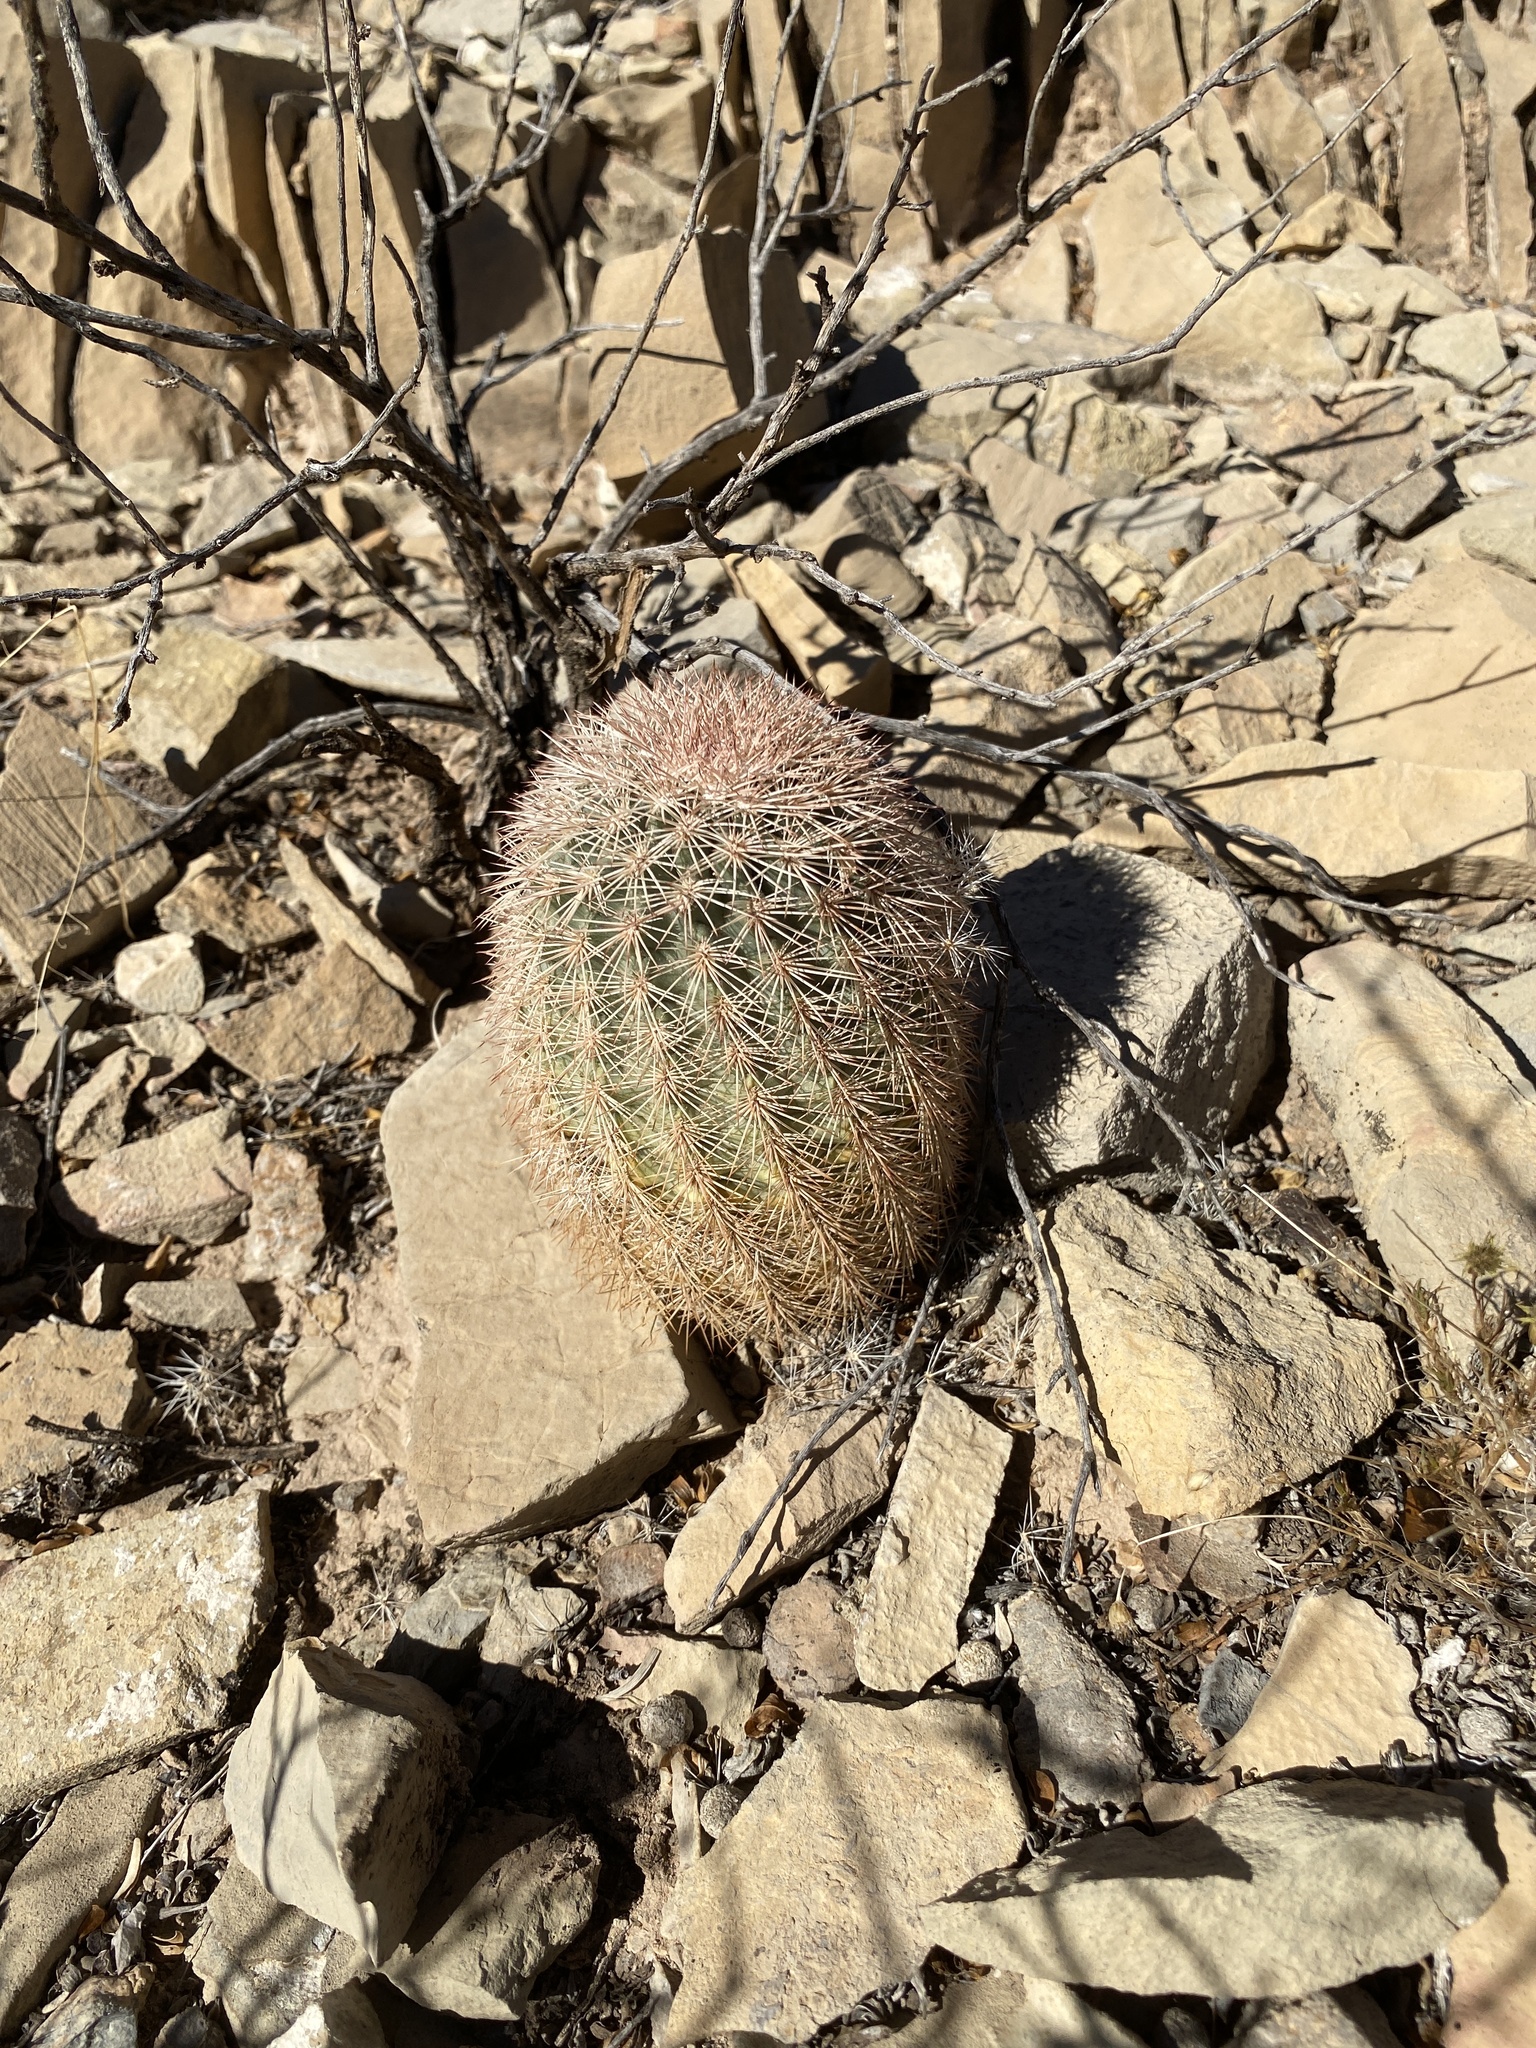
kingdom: Plantae
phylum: Tracheophyta
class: Magnoliopsida
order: Caryophyllales
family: Cactaceae
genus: Echinocereus
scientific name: Echinocereus dasyacanthus
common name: Spiny hedgehog cactus
